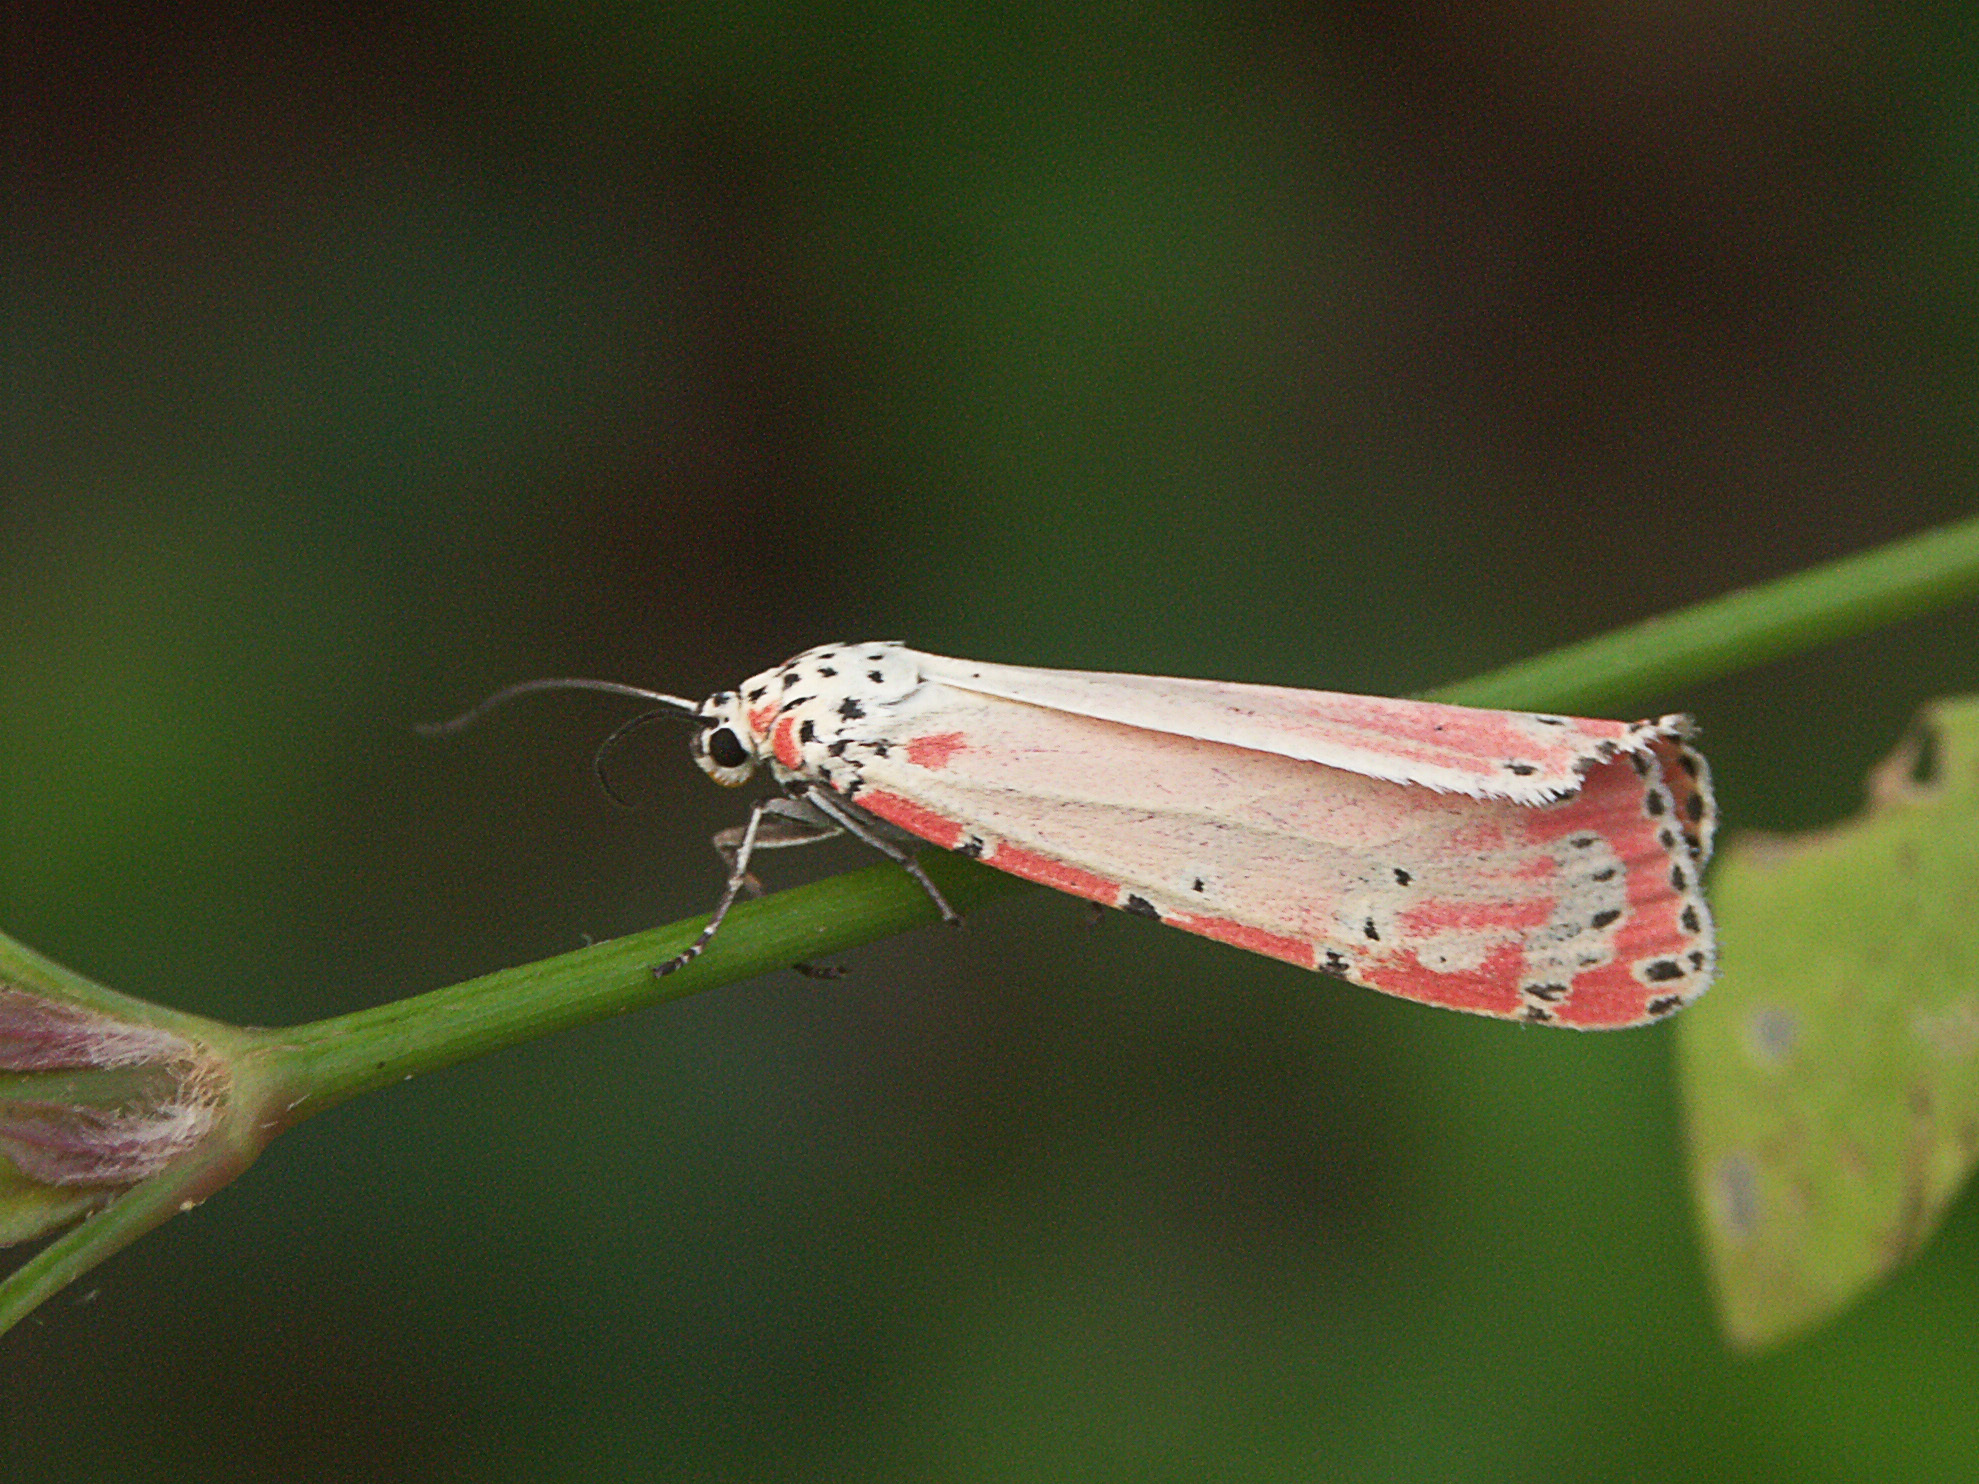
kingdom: Animalia
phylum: Arthropoda
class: Insecta
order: Lepidoptera
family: Erebidae
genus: Utetheisa
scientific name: Utetheisa ornatrix
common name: Beautiful utetheisa
